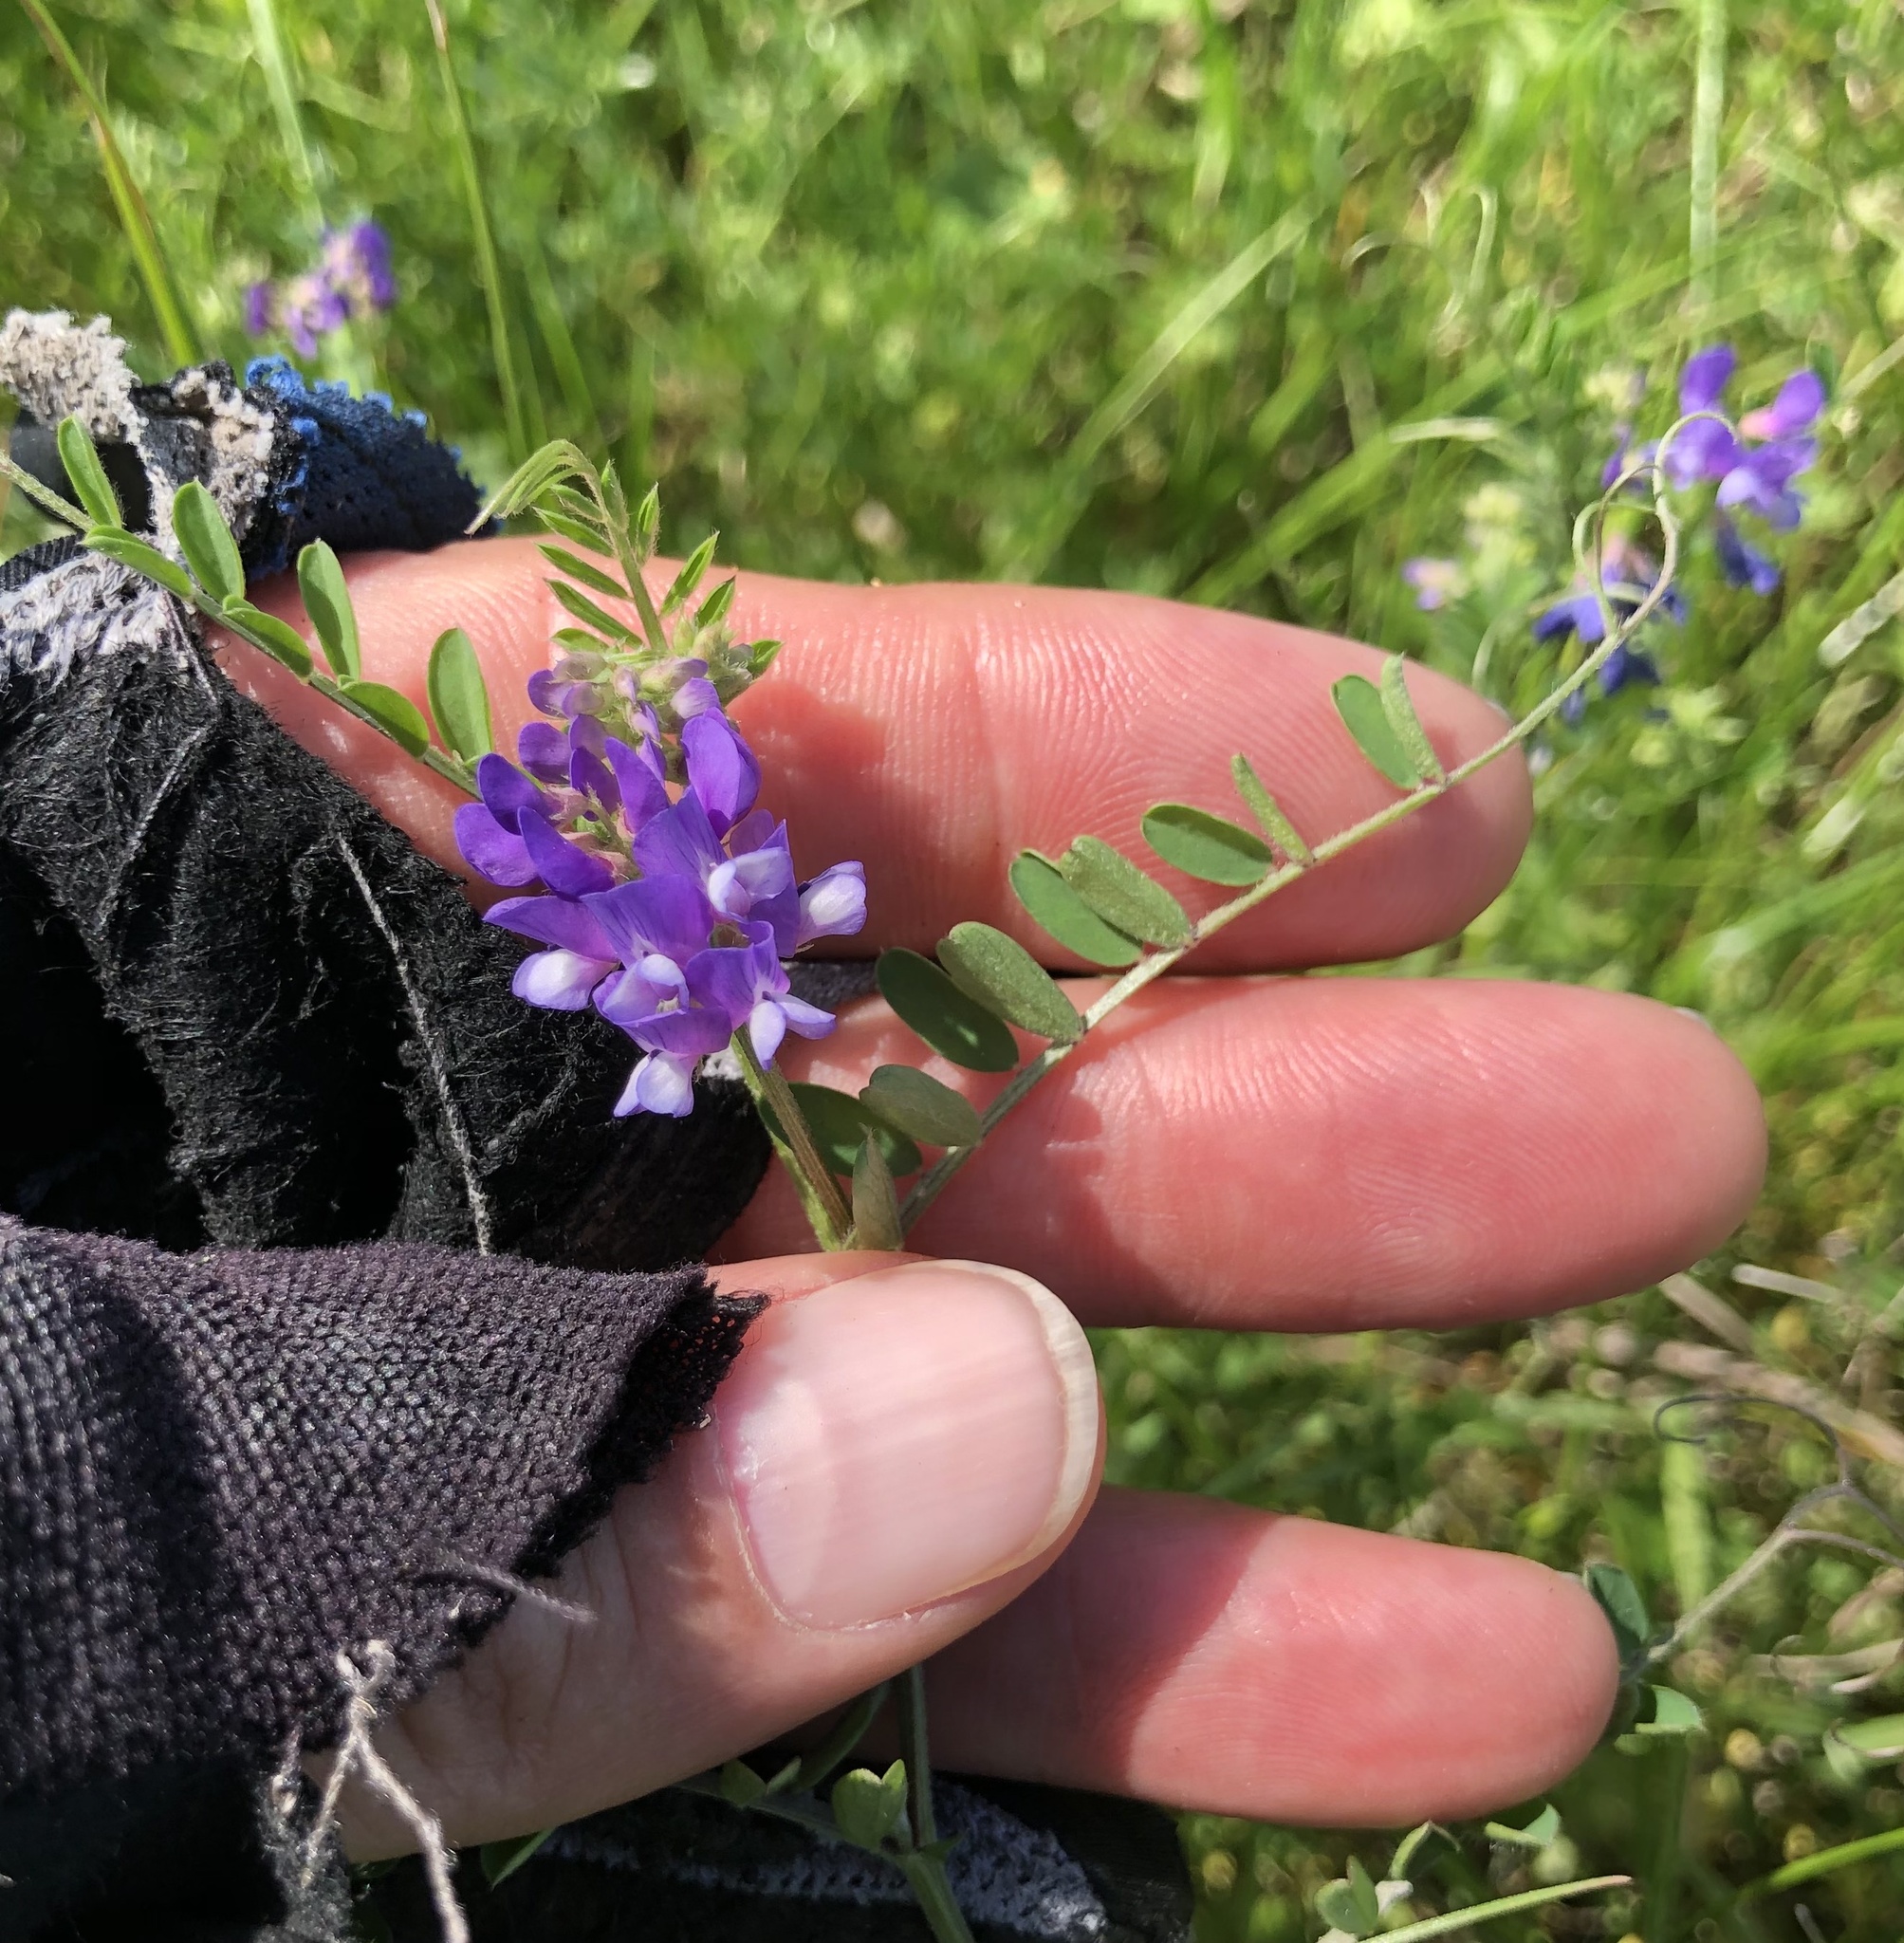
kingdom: Plantae
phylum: Tracheophyta
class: Magnoliopsida
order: Fabales
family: Fabaceae
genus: Vicia
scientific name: Vicia ludoviciana
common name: Louisiana vetch
